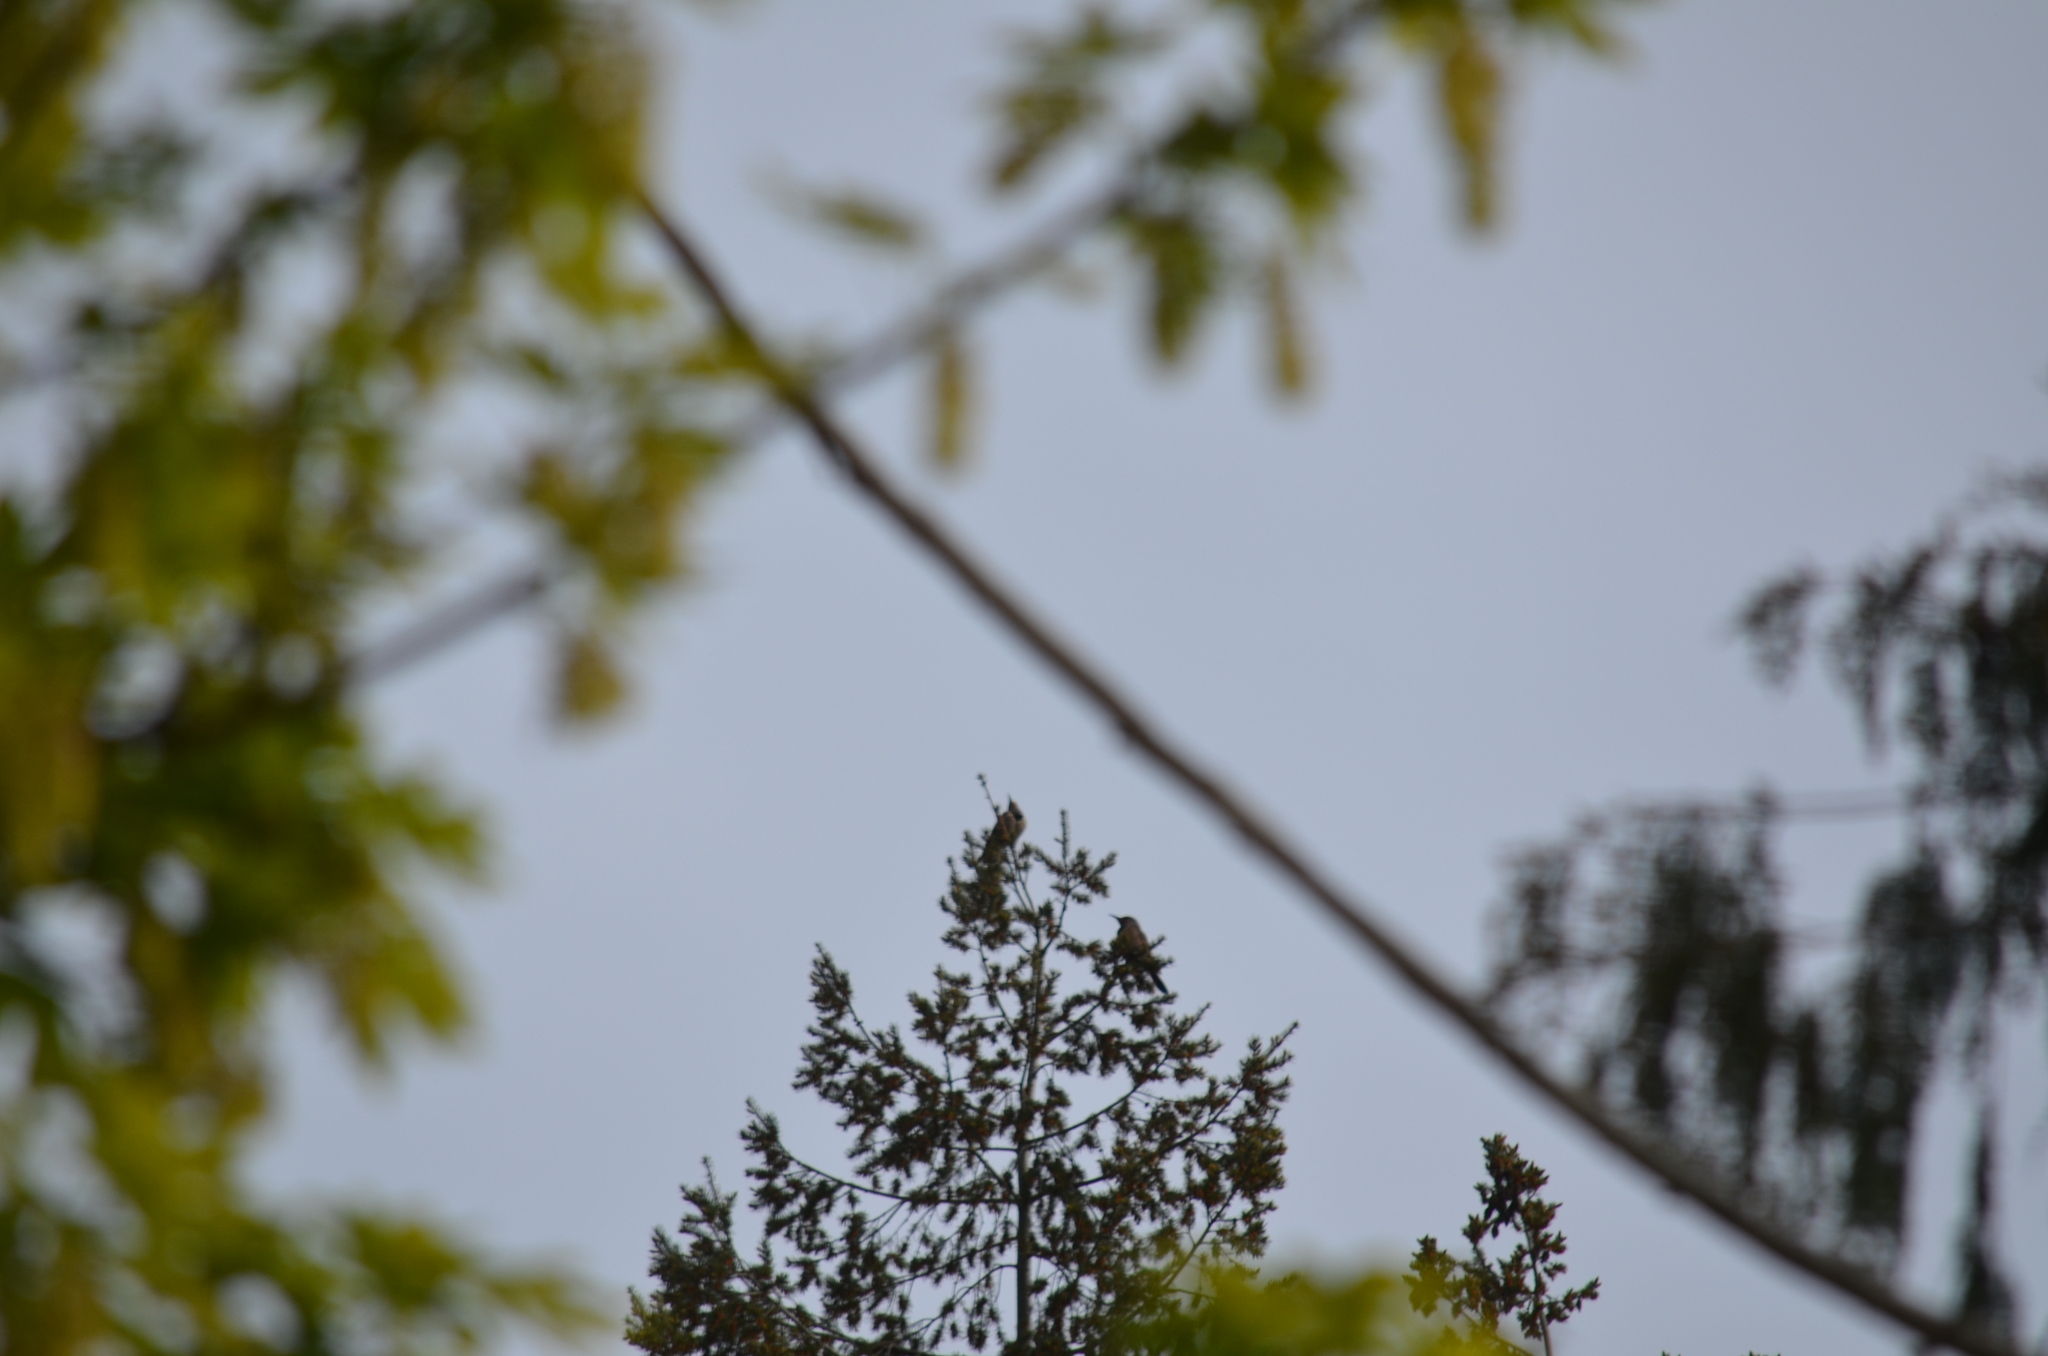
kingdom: Animalia
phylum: Chordata
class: Aves
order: Piciformes
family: Picidae
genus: Colaptes
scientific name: Colaptes auratus
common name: Northern flicker
